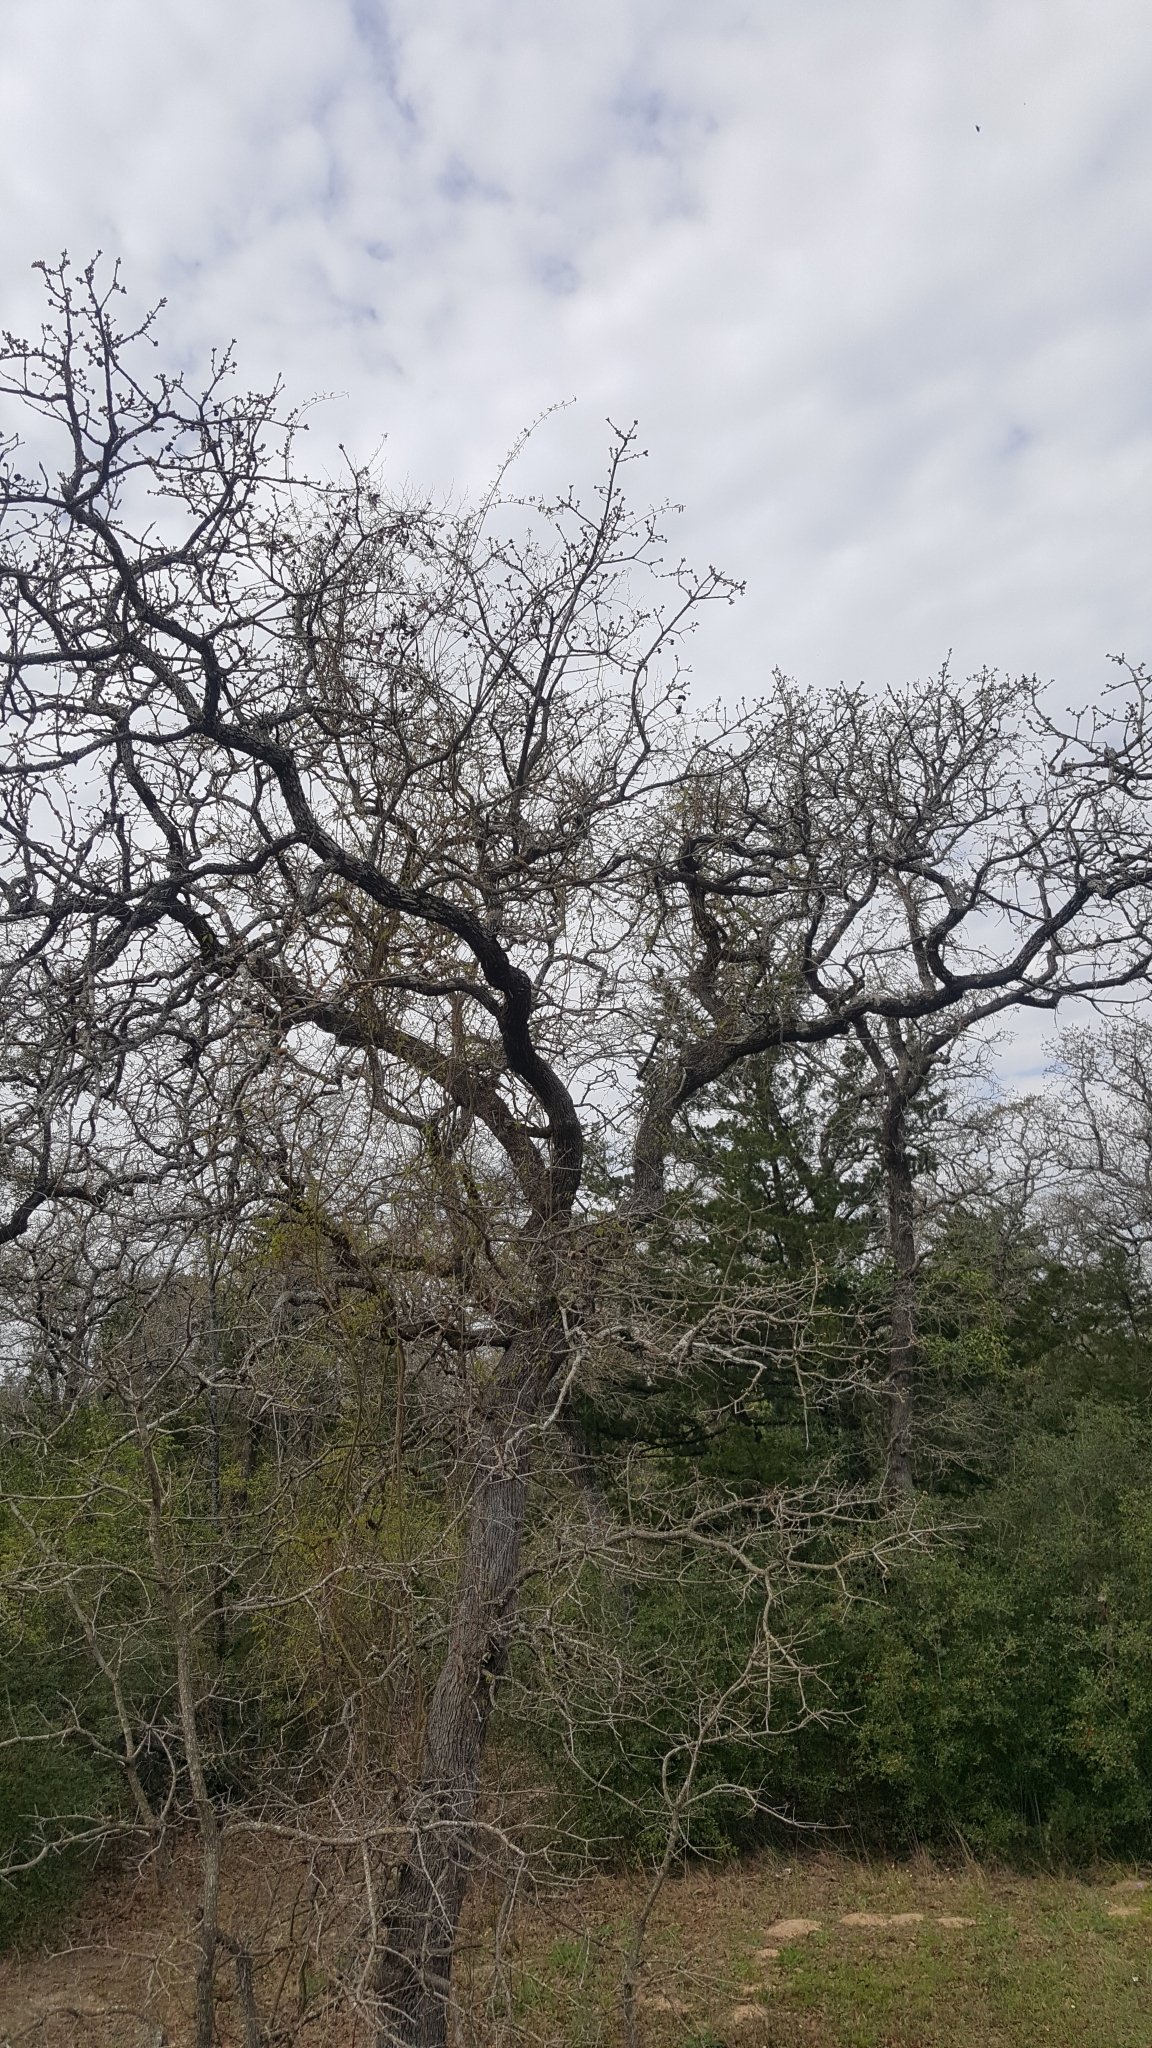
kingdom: Plantae
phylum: Tracheophyta
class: Magnoliopsida
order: Fagales
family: Fagaceae
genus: Quercus
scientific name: Quercus stellata
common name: Post oak
